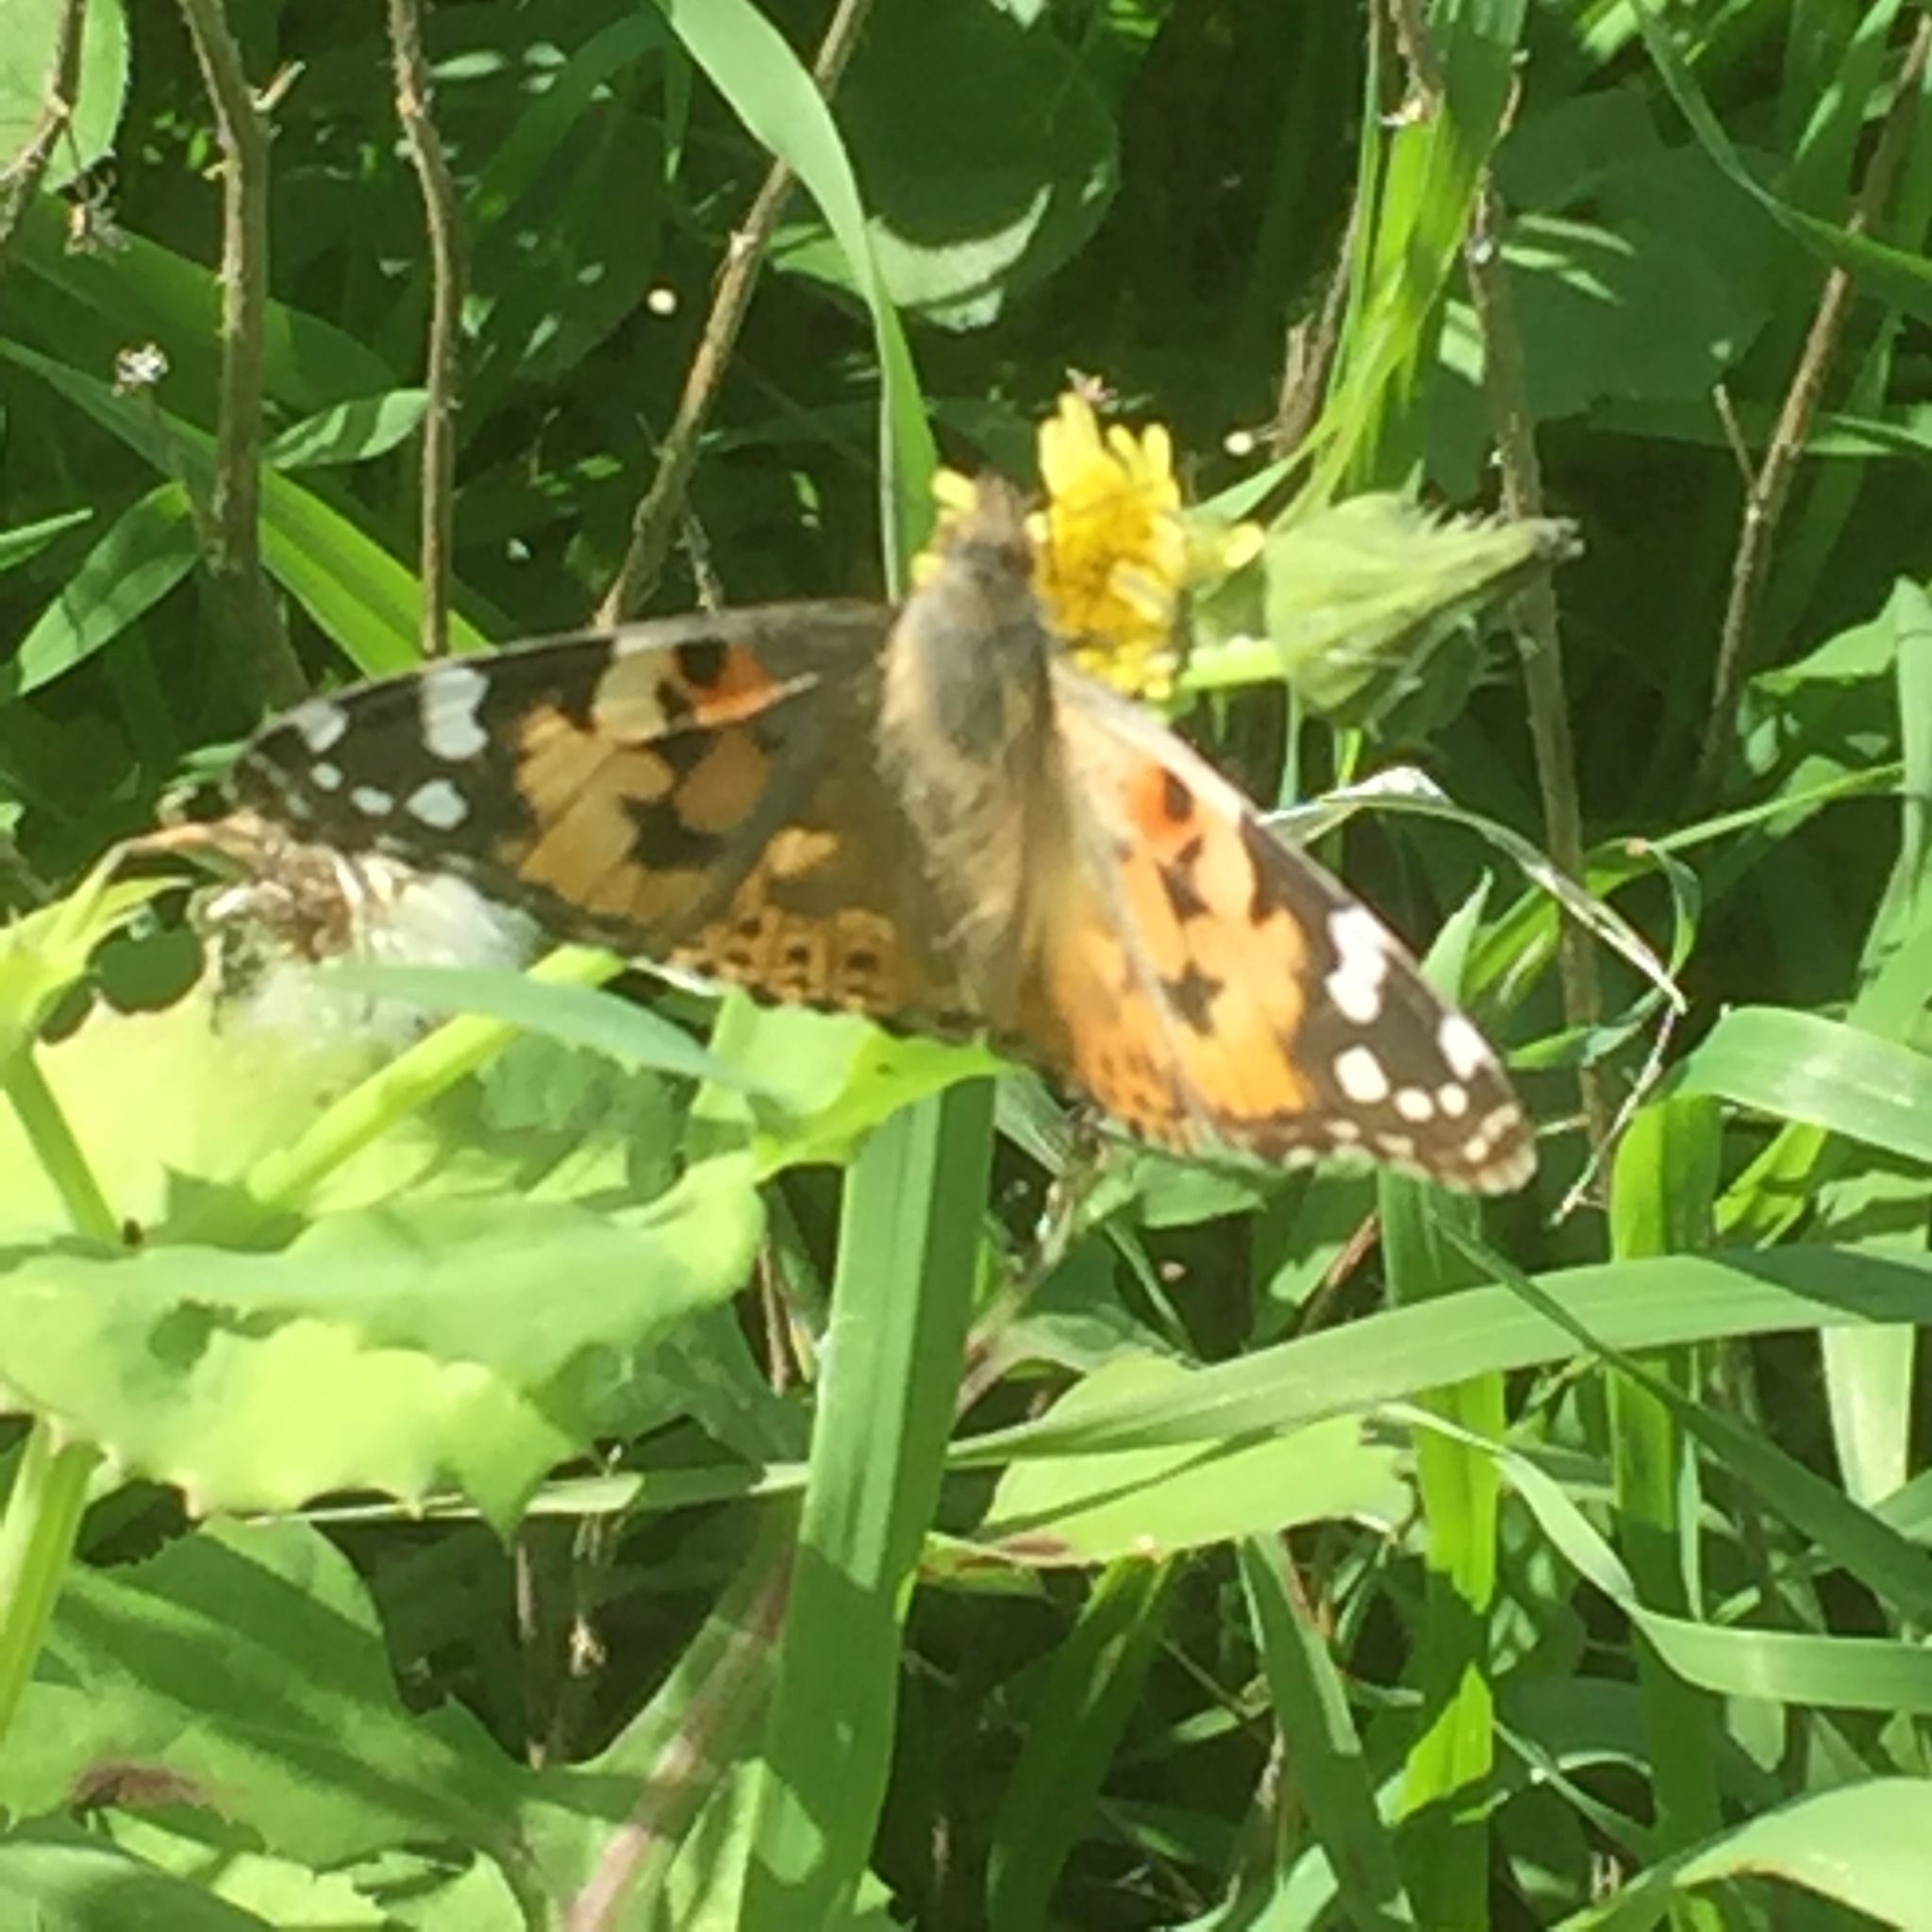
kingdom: Animalia
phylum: Arthropoda
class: Insecta
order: Lepidoptera
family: Nymphalidae
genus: Vanessa
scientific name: Vanessa cardui
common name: Painted lady
